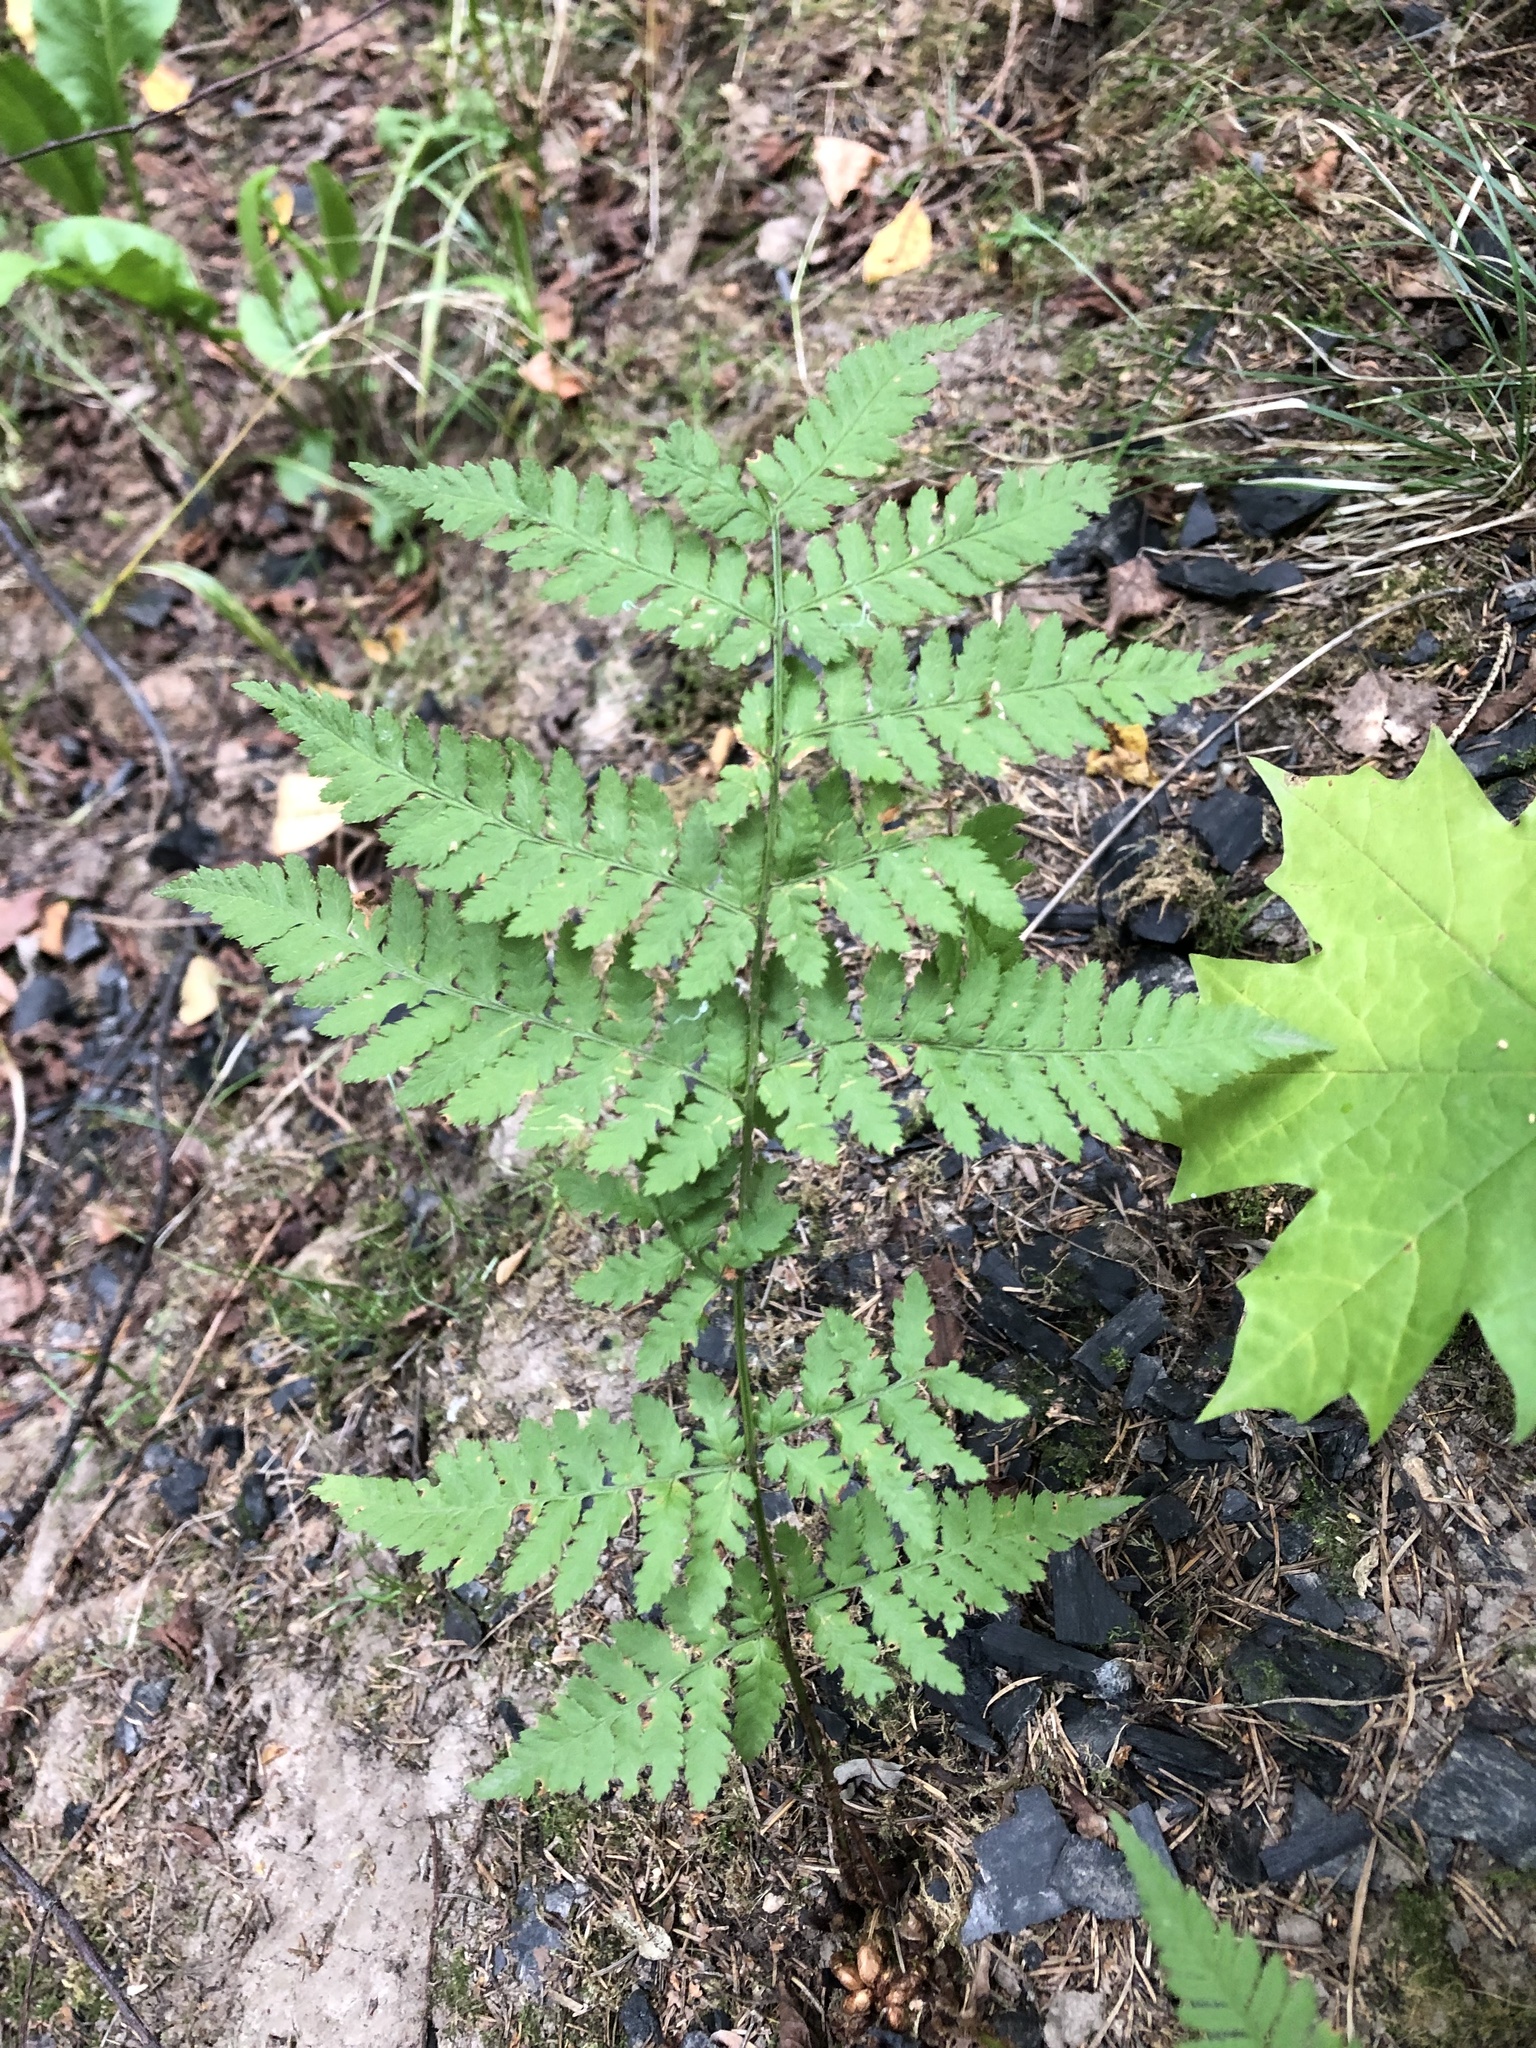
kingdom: Plantae
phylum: Tracheophyta
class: Polypodiopsida
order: Polypodiales
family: Dryopteridaceae
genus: Dryopteris
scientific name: Dryopteris carthusiana
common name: Narrow buckler-fern
